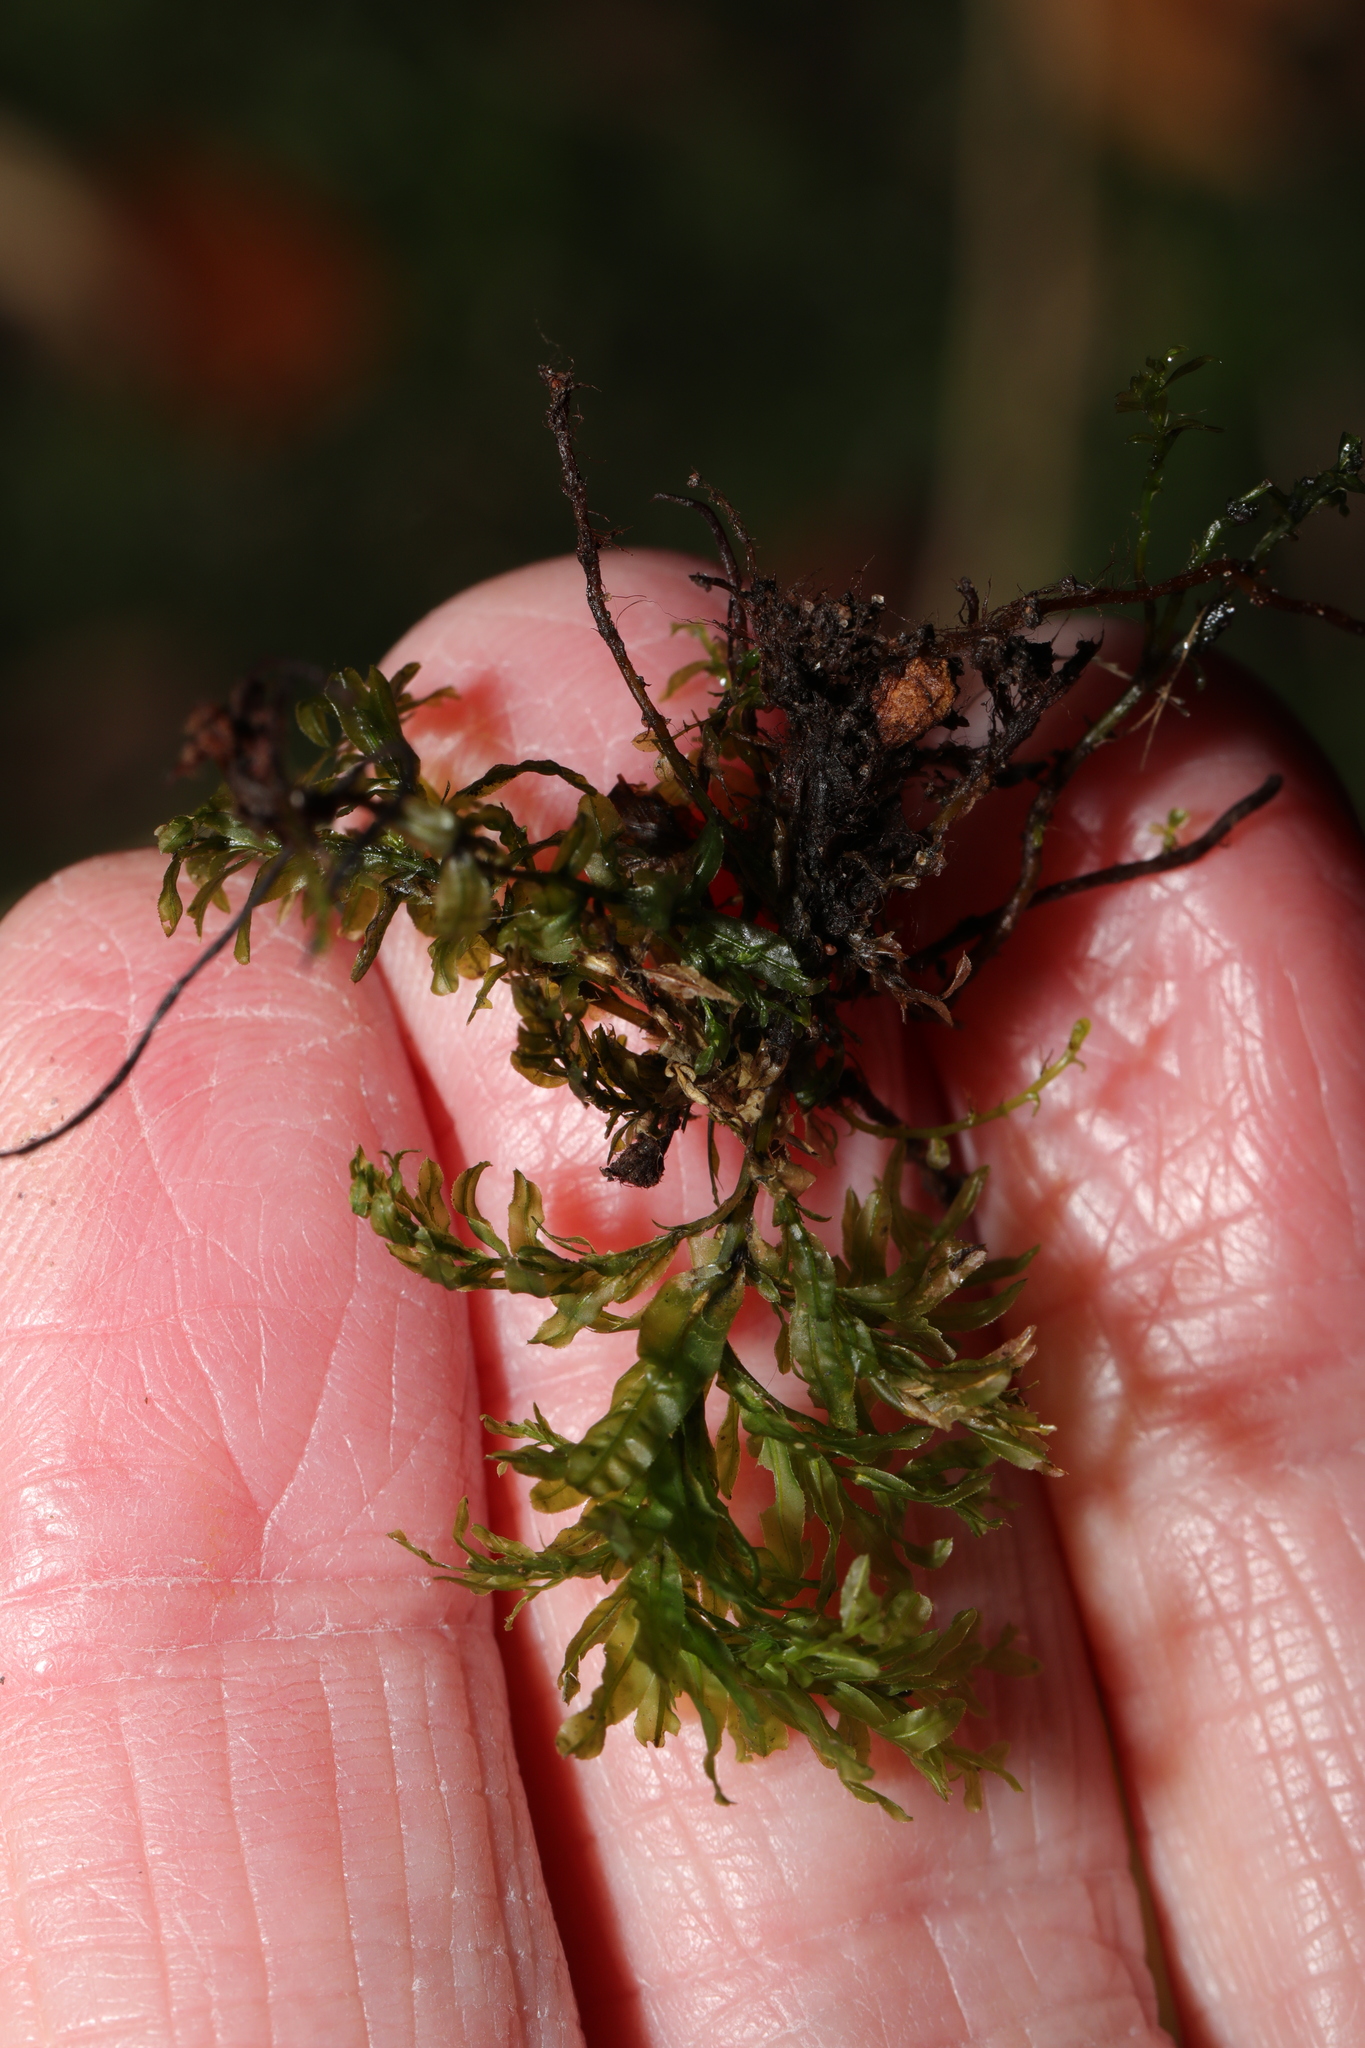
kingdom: Plantae
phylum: Bryophyta
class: Bryopsida
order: Bryales
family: Mniaceae
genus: Plagiomnium
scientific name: Plagiomnium undulatum
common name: Hart's-tongue thyme-moss
